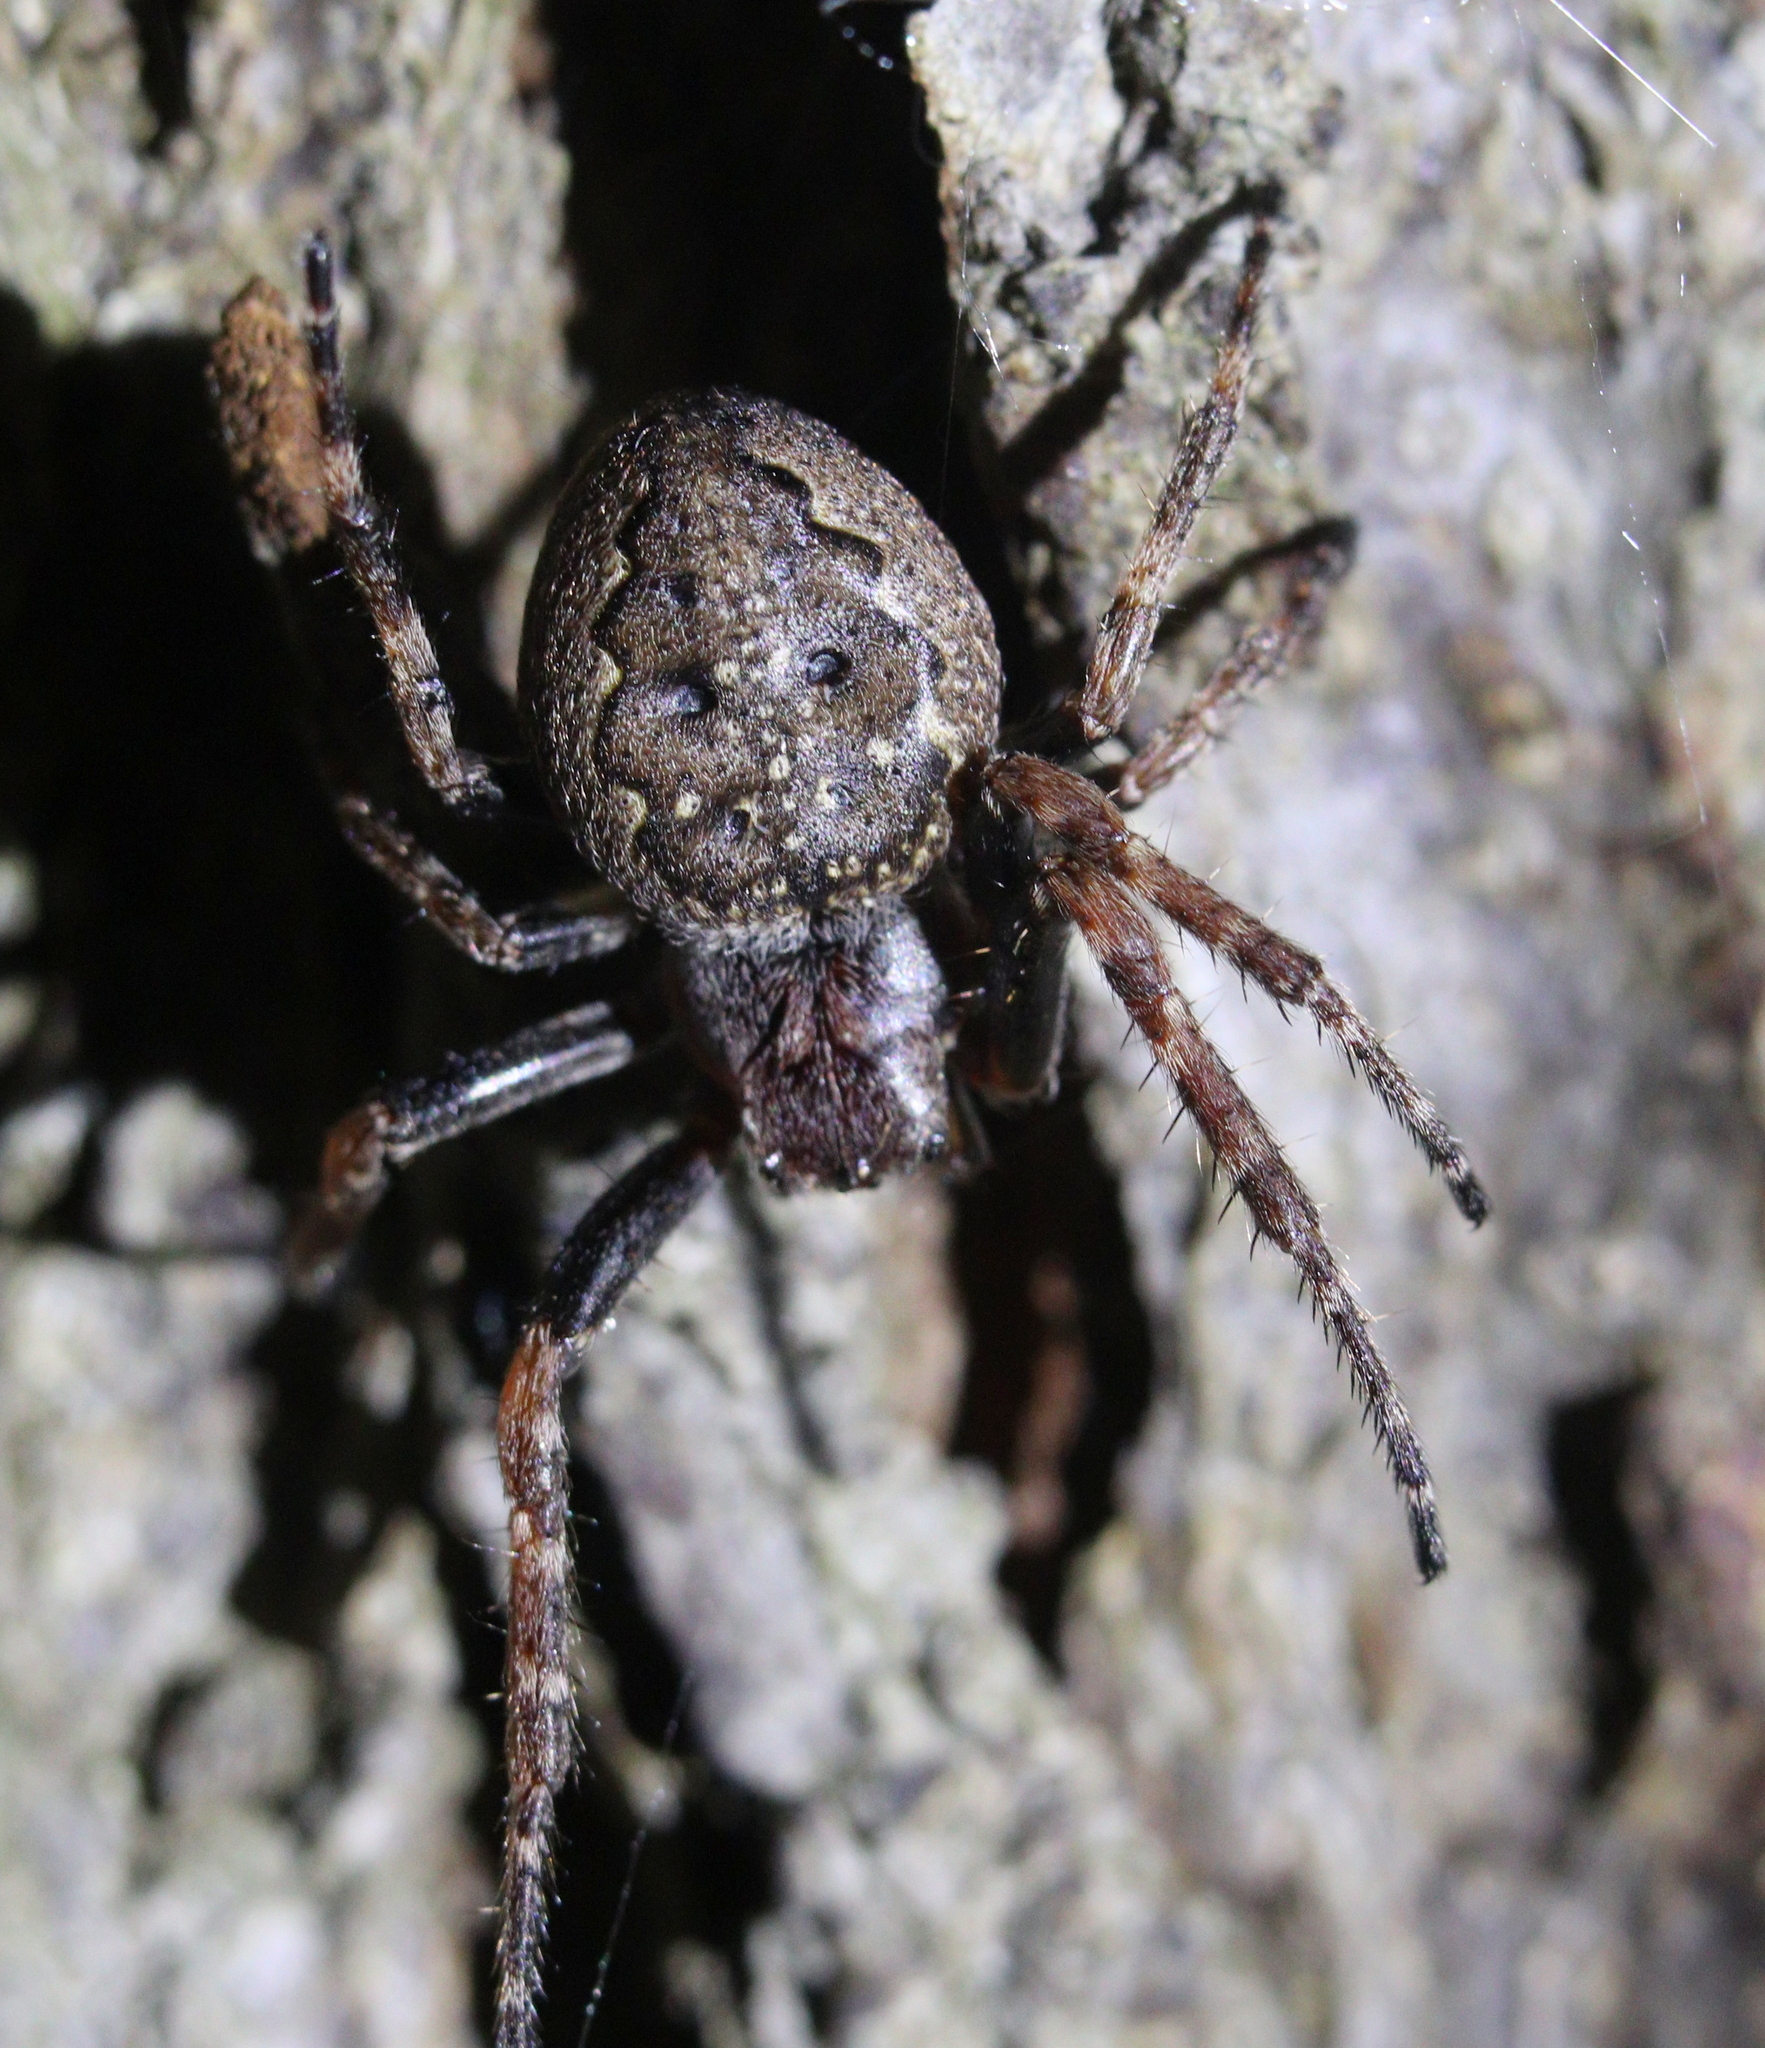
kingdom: Animalia
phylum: Arthropoda
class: Arachnida
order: Araneae
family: Araneidae
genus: Nuctenea
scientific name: Nuctenea umbratica
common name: Toad spider
